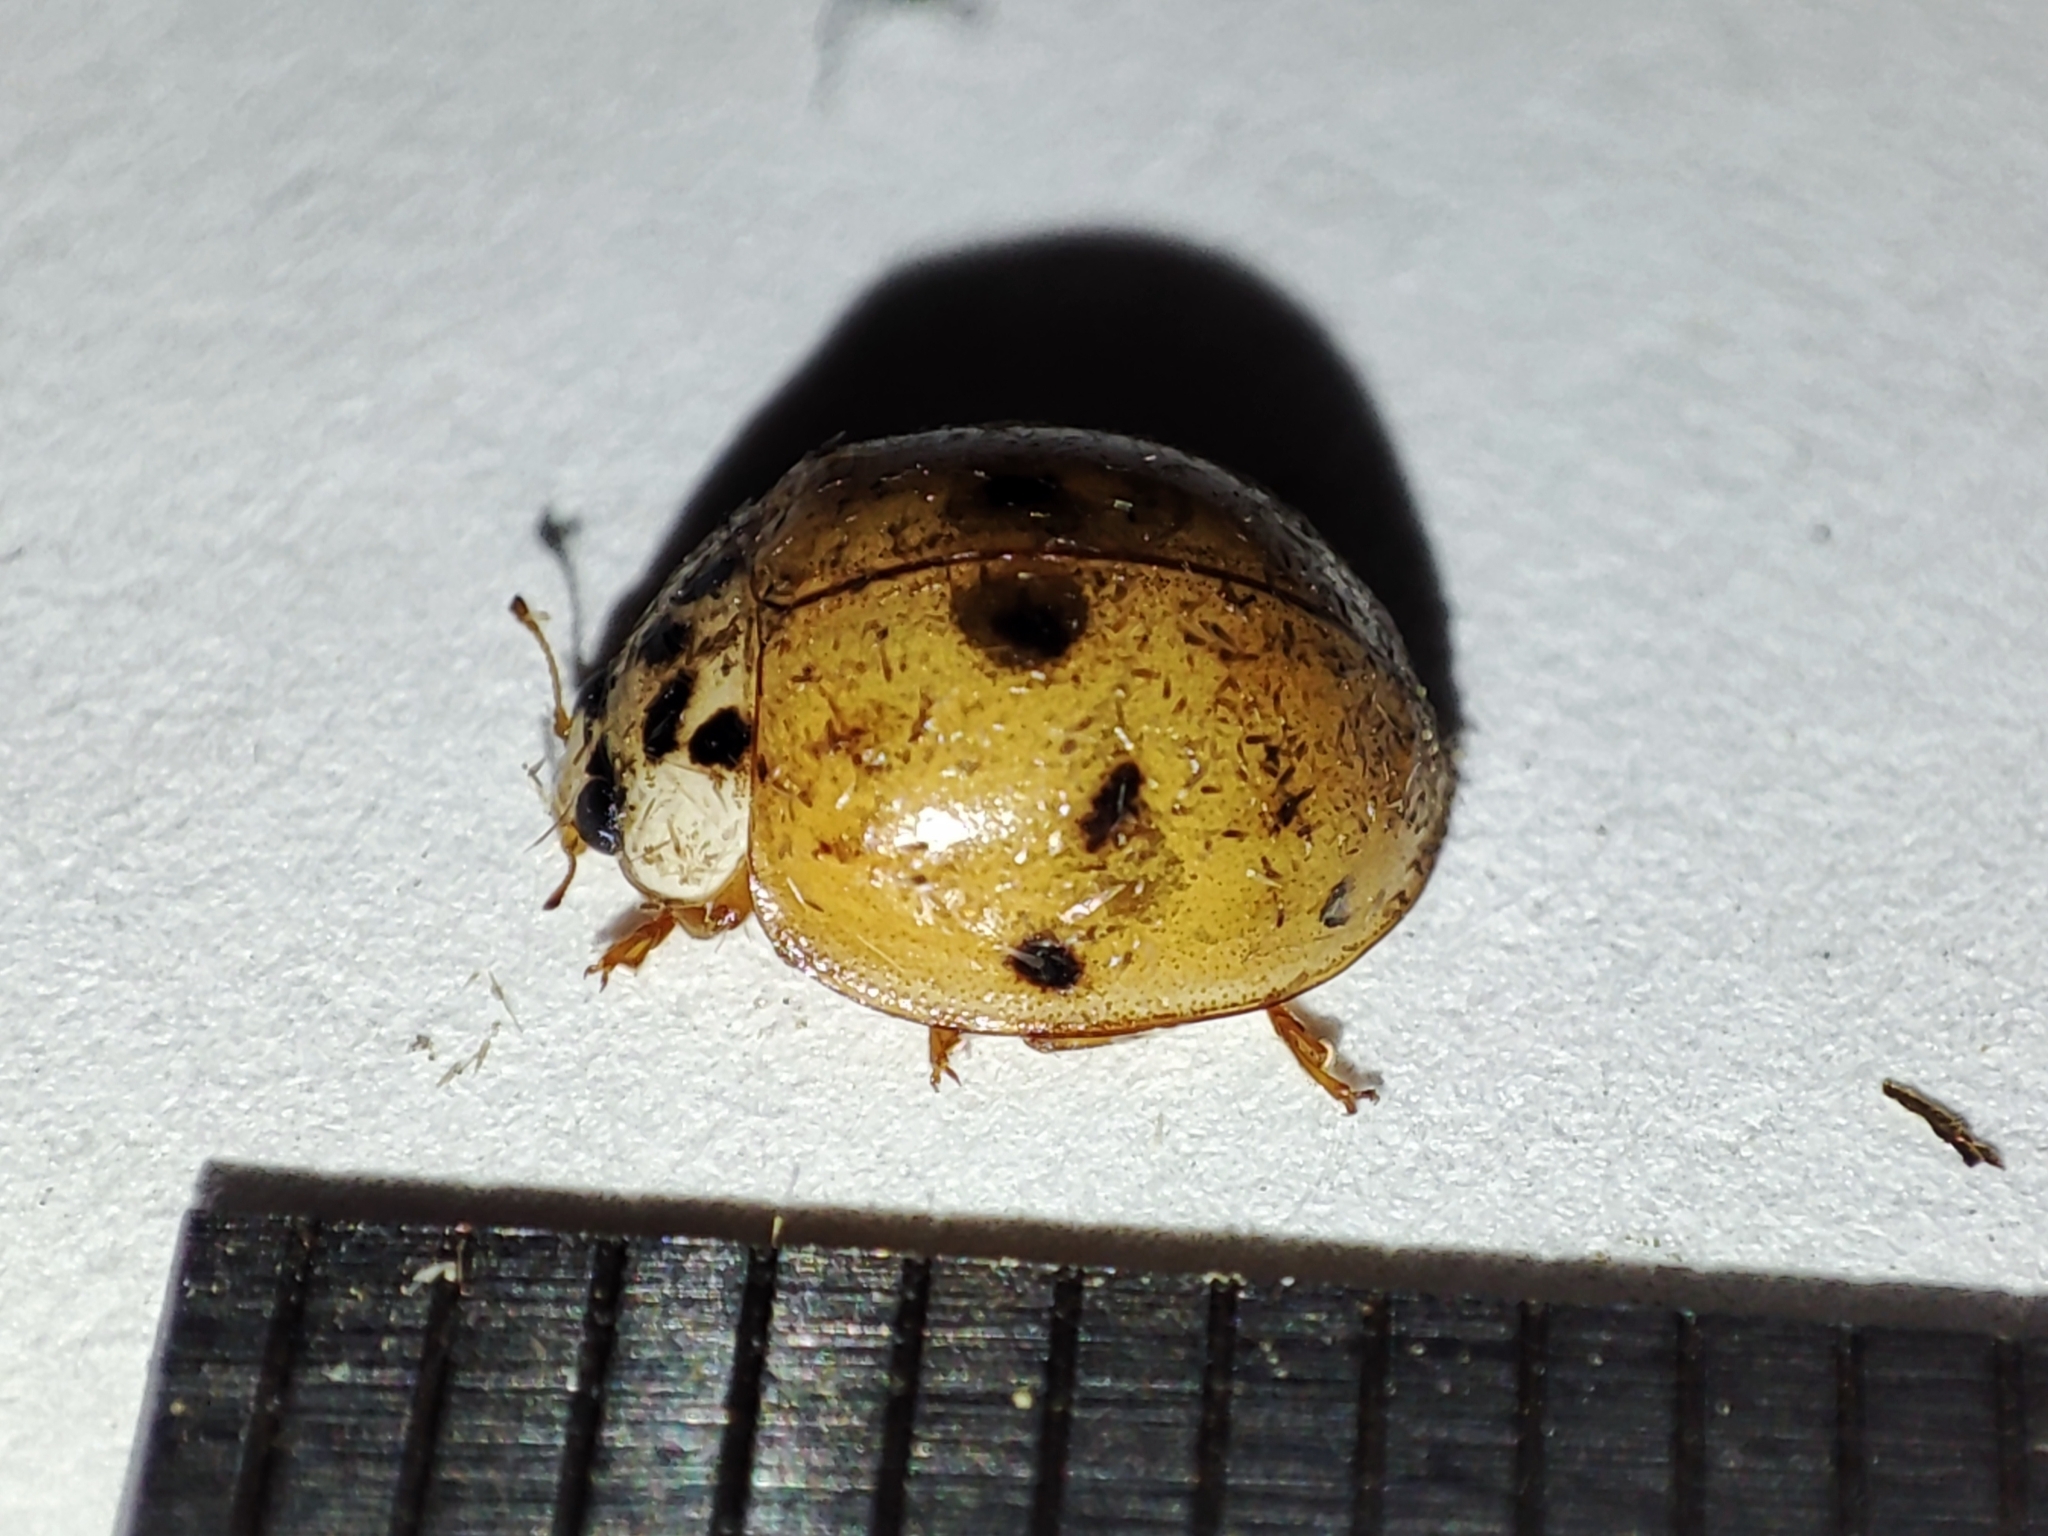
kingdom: Animalia
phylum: Arthropoda
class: Insecta
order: Coleoptera
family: Coccinellidae
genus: Harmonia
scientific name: Harmonia axyridis
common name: Harlequin ladybird
